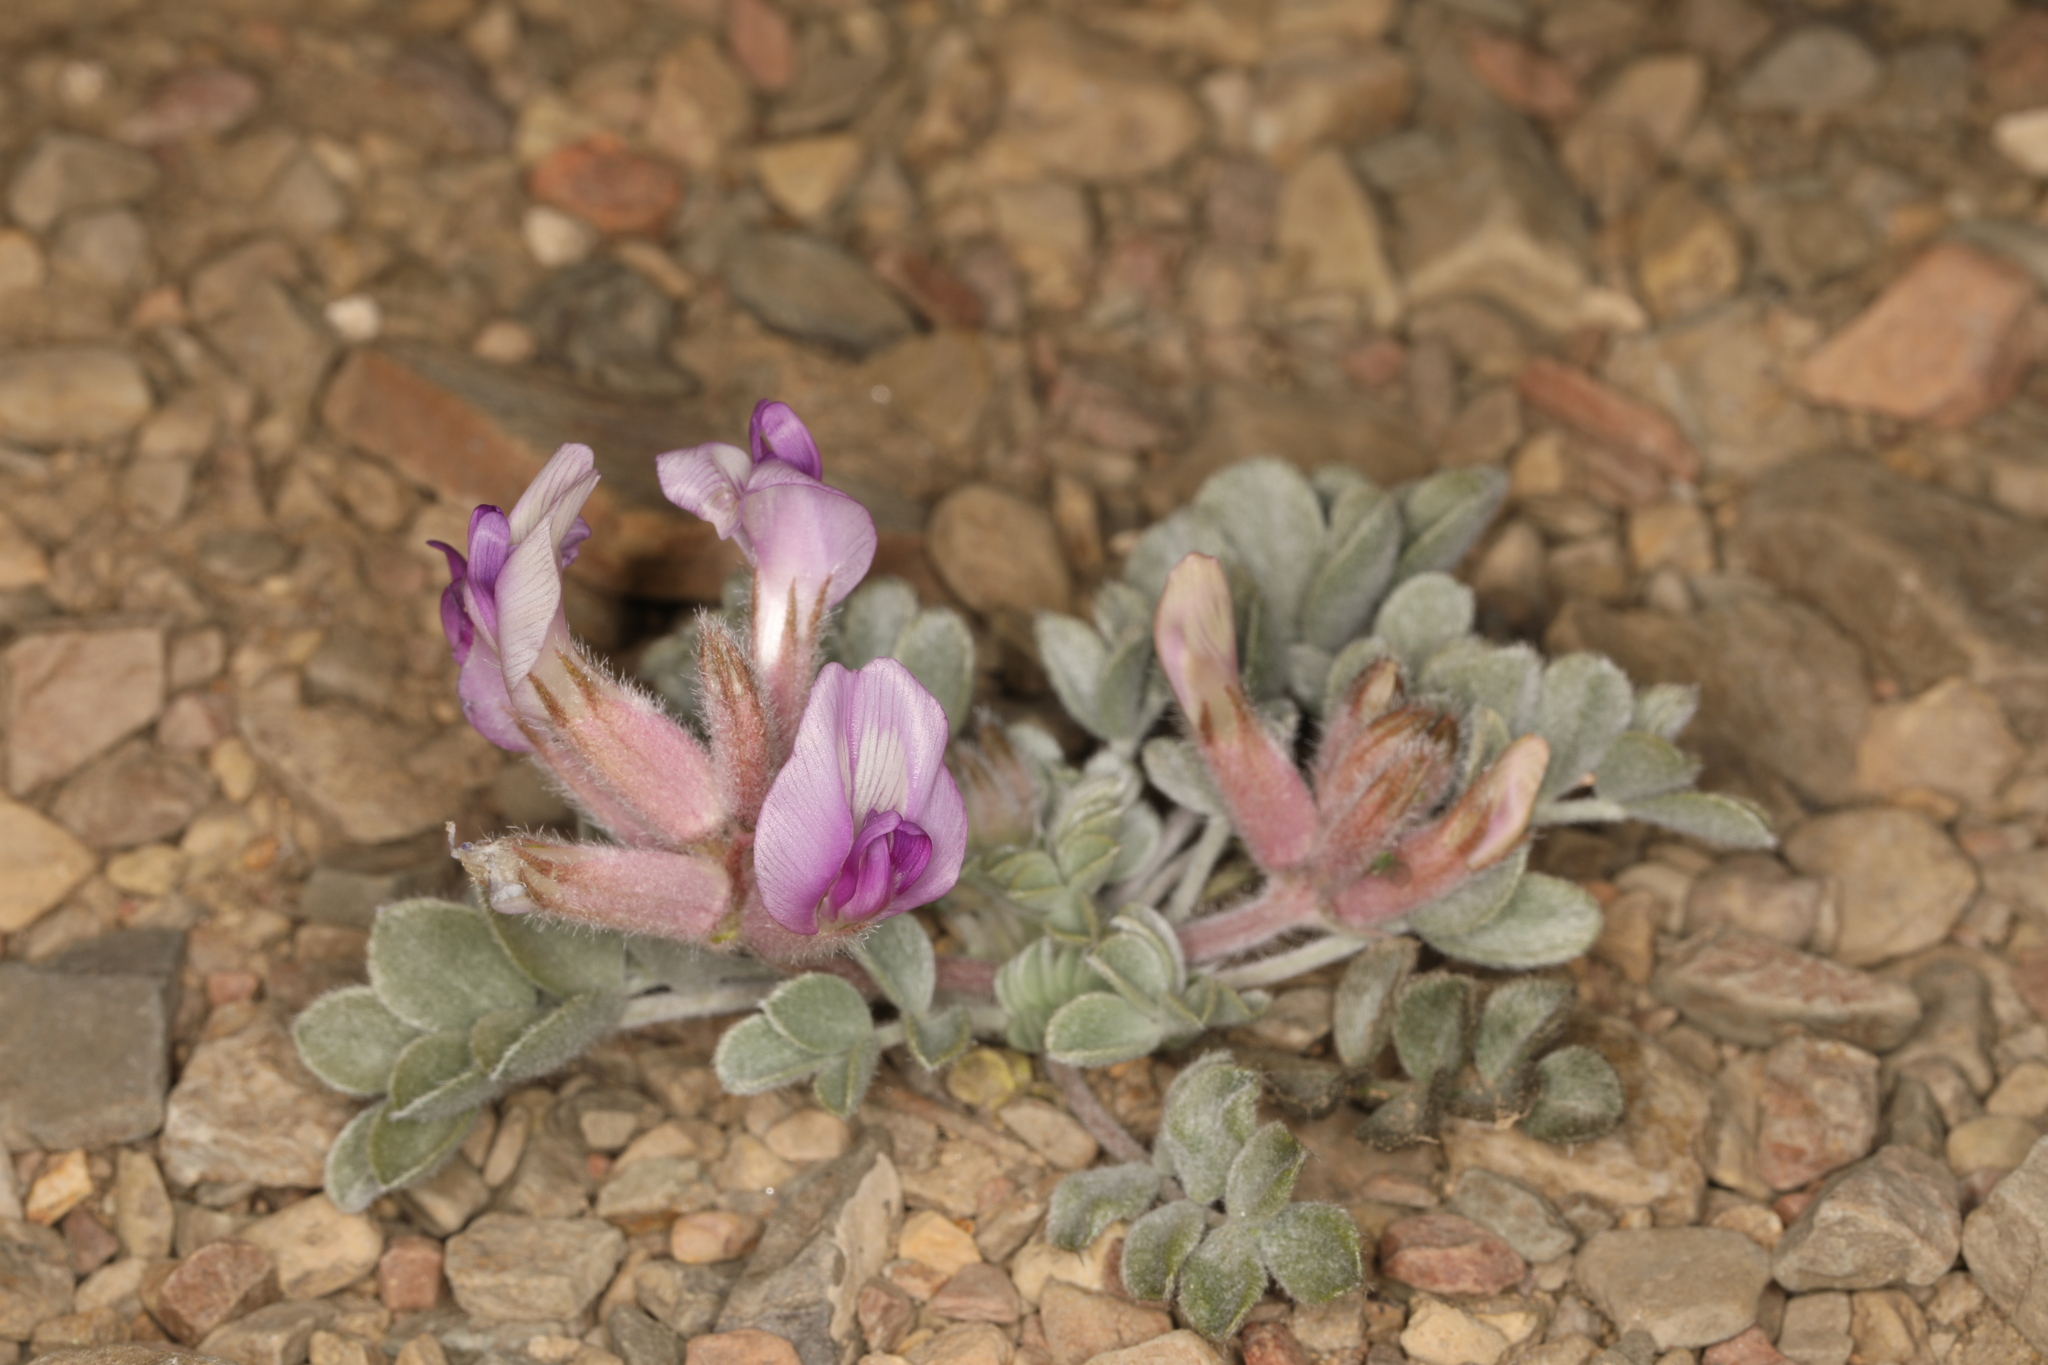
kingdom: Plantae
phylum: Tracheophyta
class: Magnoliopsida
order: Fabales
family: Fabaceae
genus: Astragalus
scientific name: Astragalus newberryi
